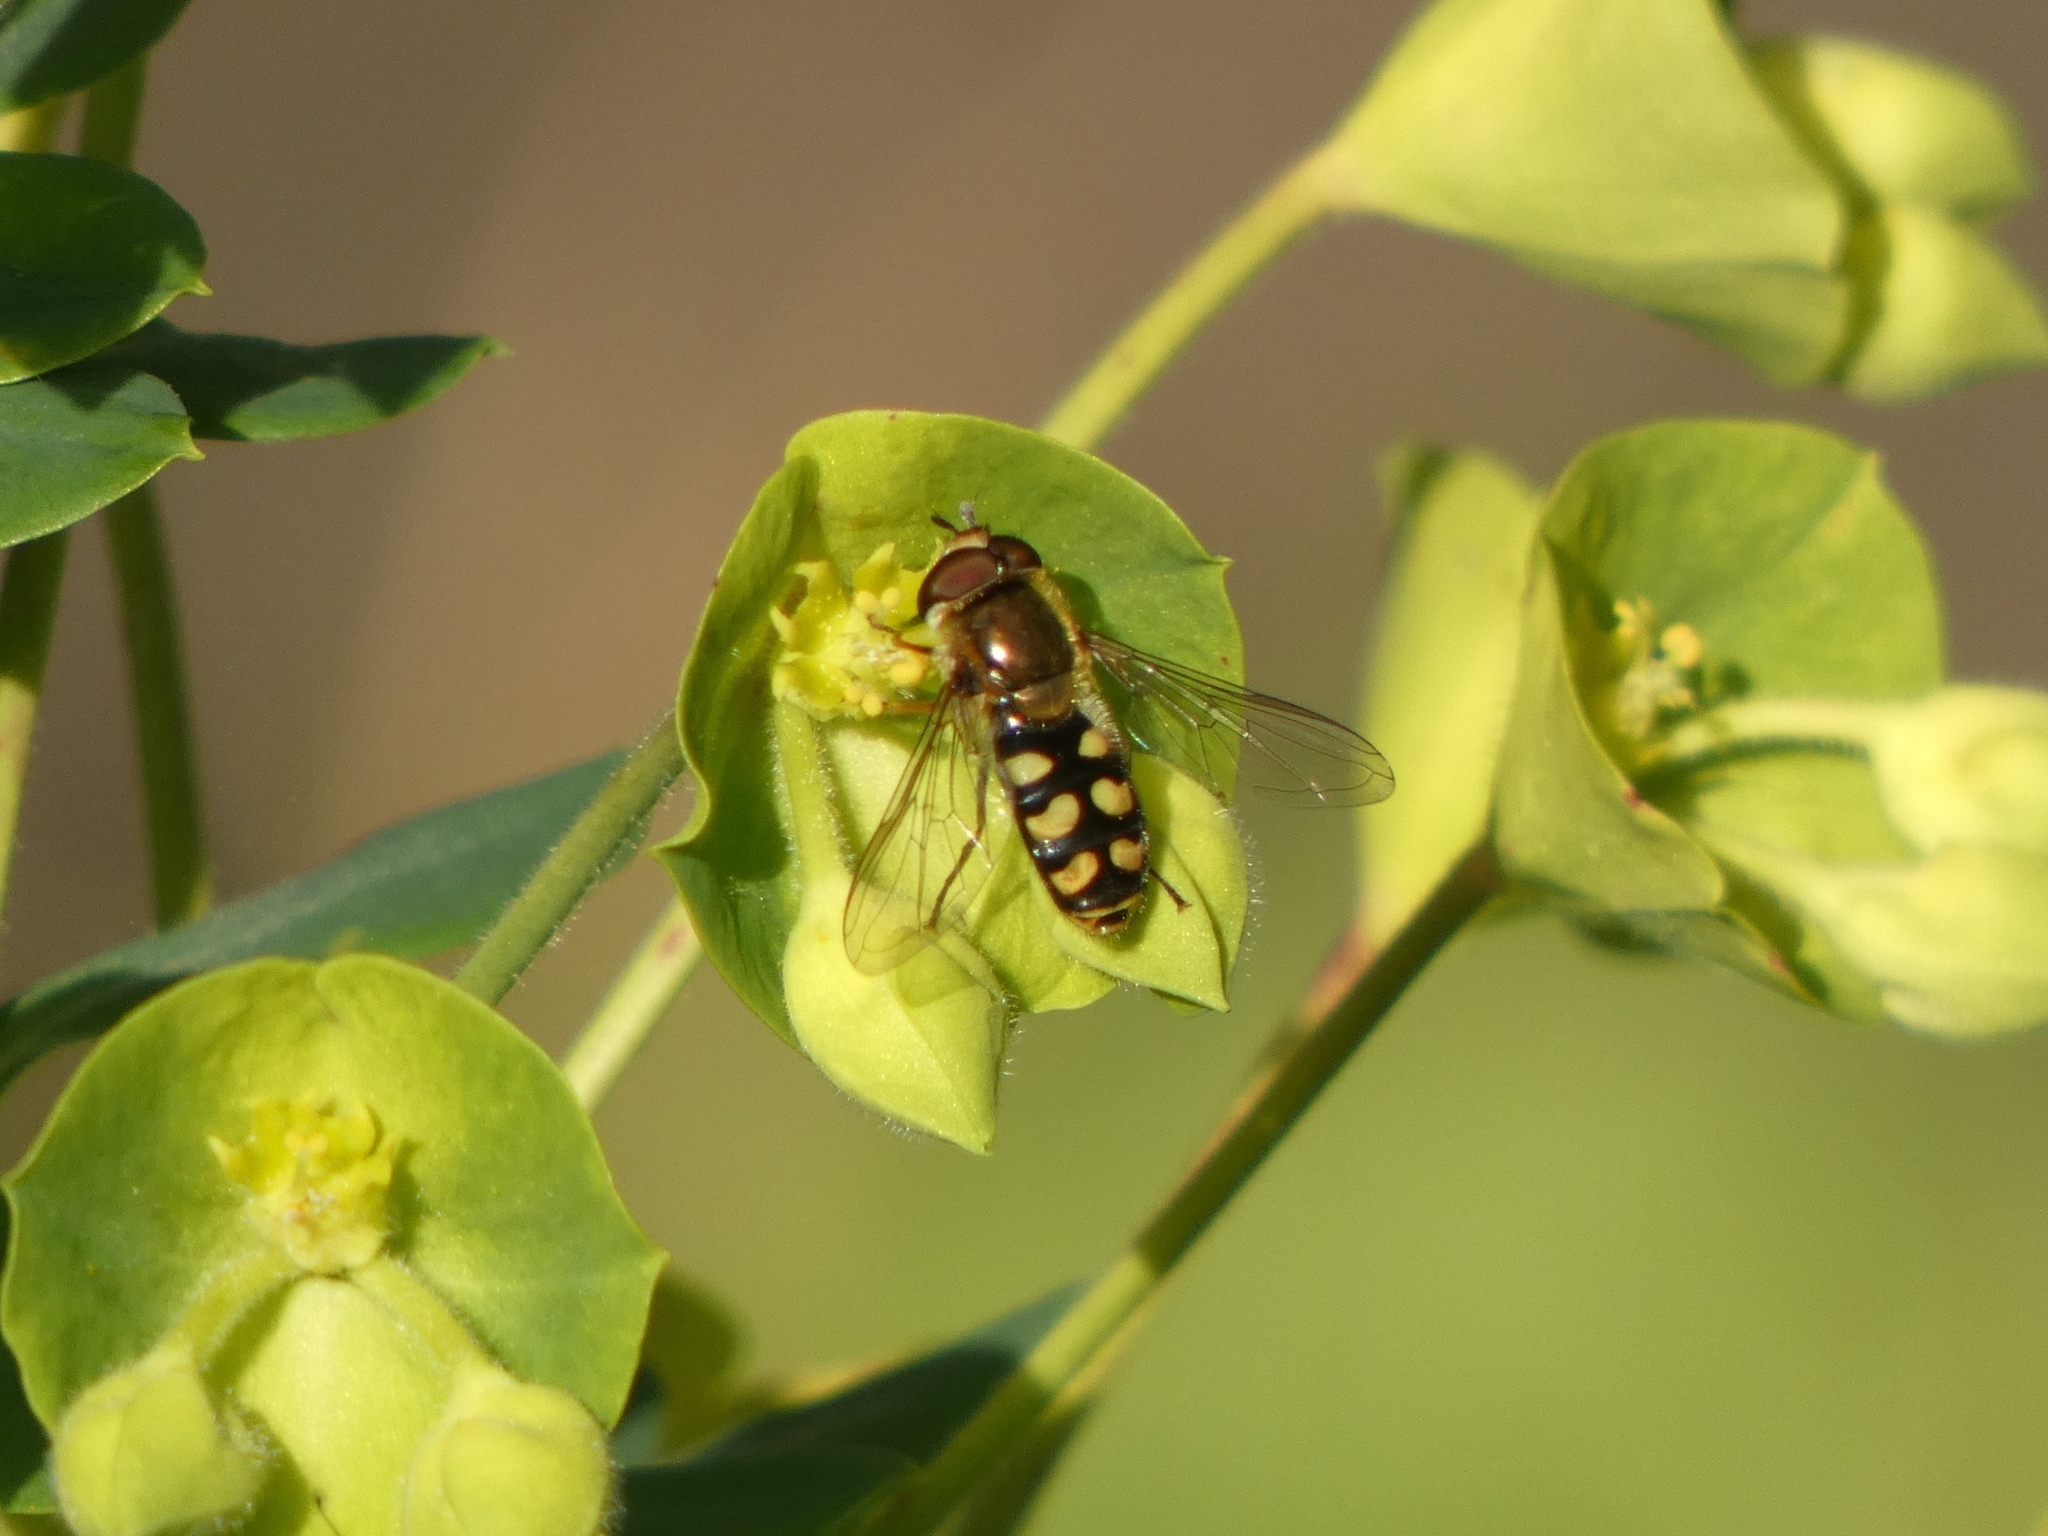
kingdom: Animalia
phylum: Arthropoda
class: Insecta
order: Diptera
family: Syrphidae
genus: Eupeodes
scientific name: Eupeodes
